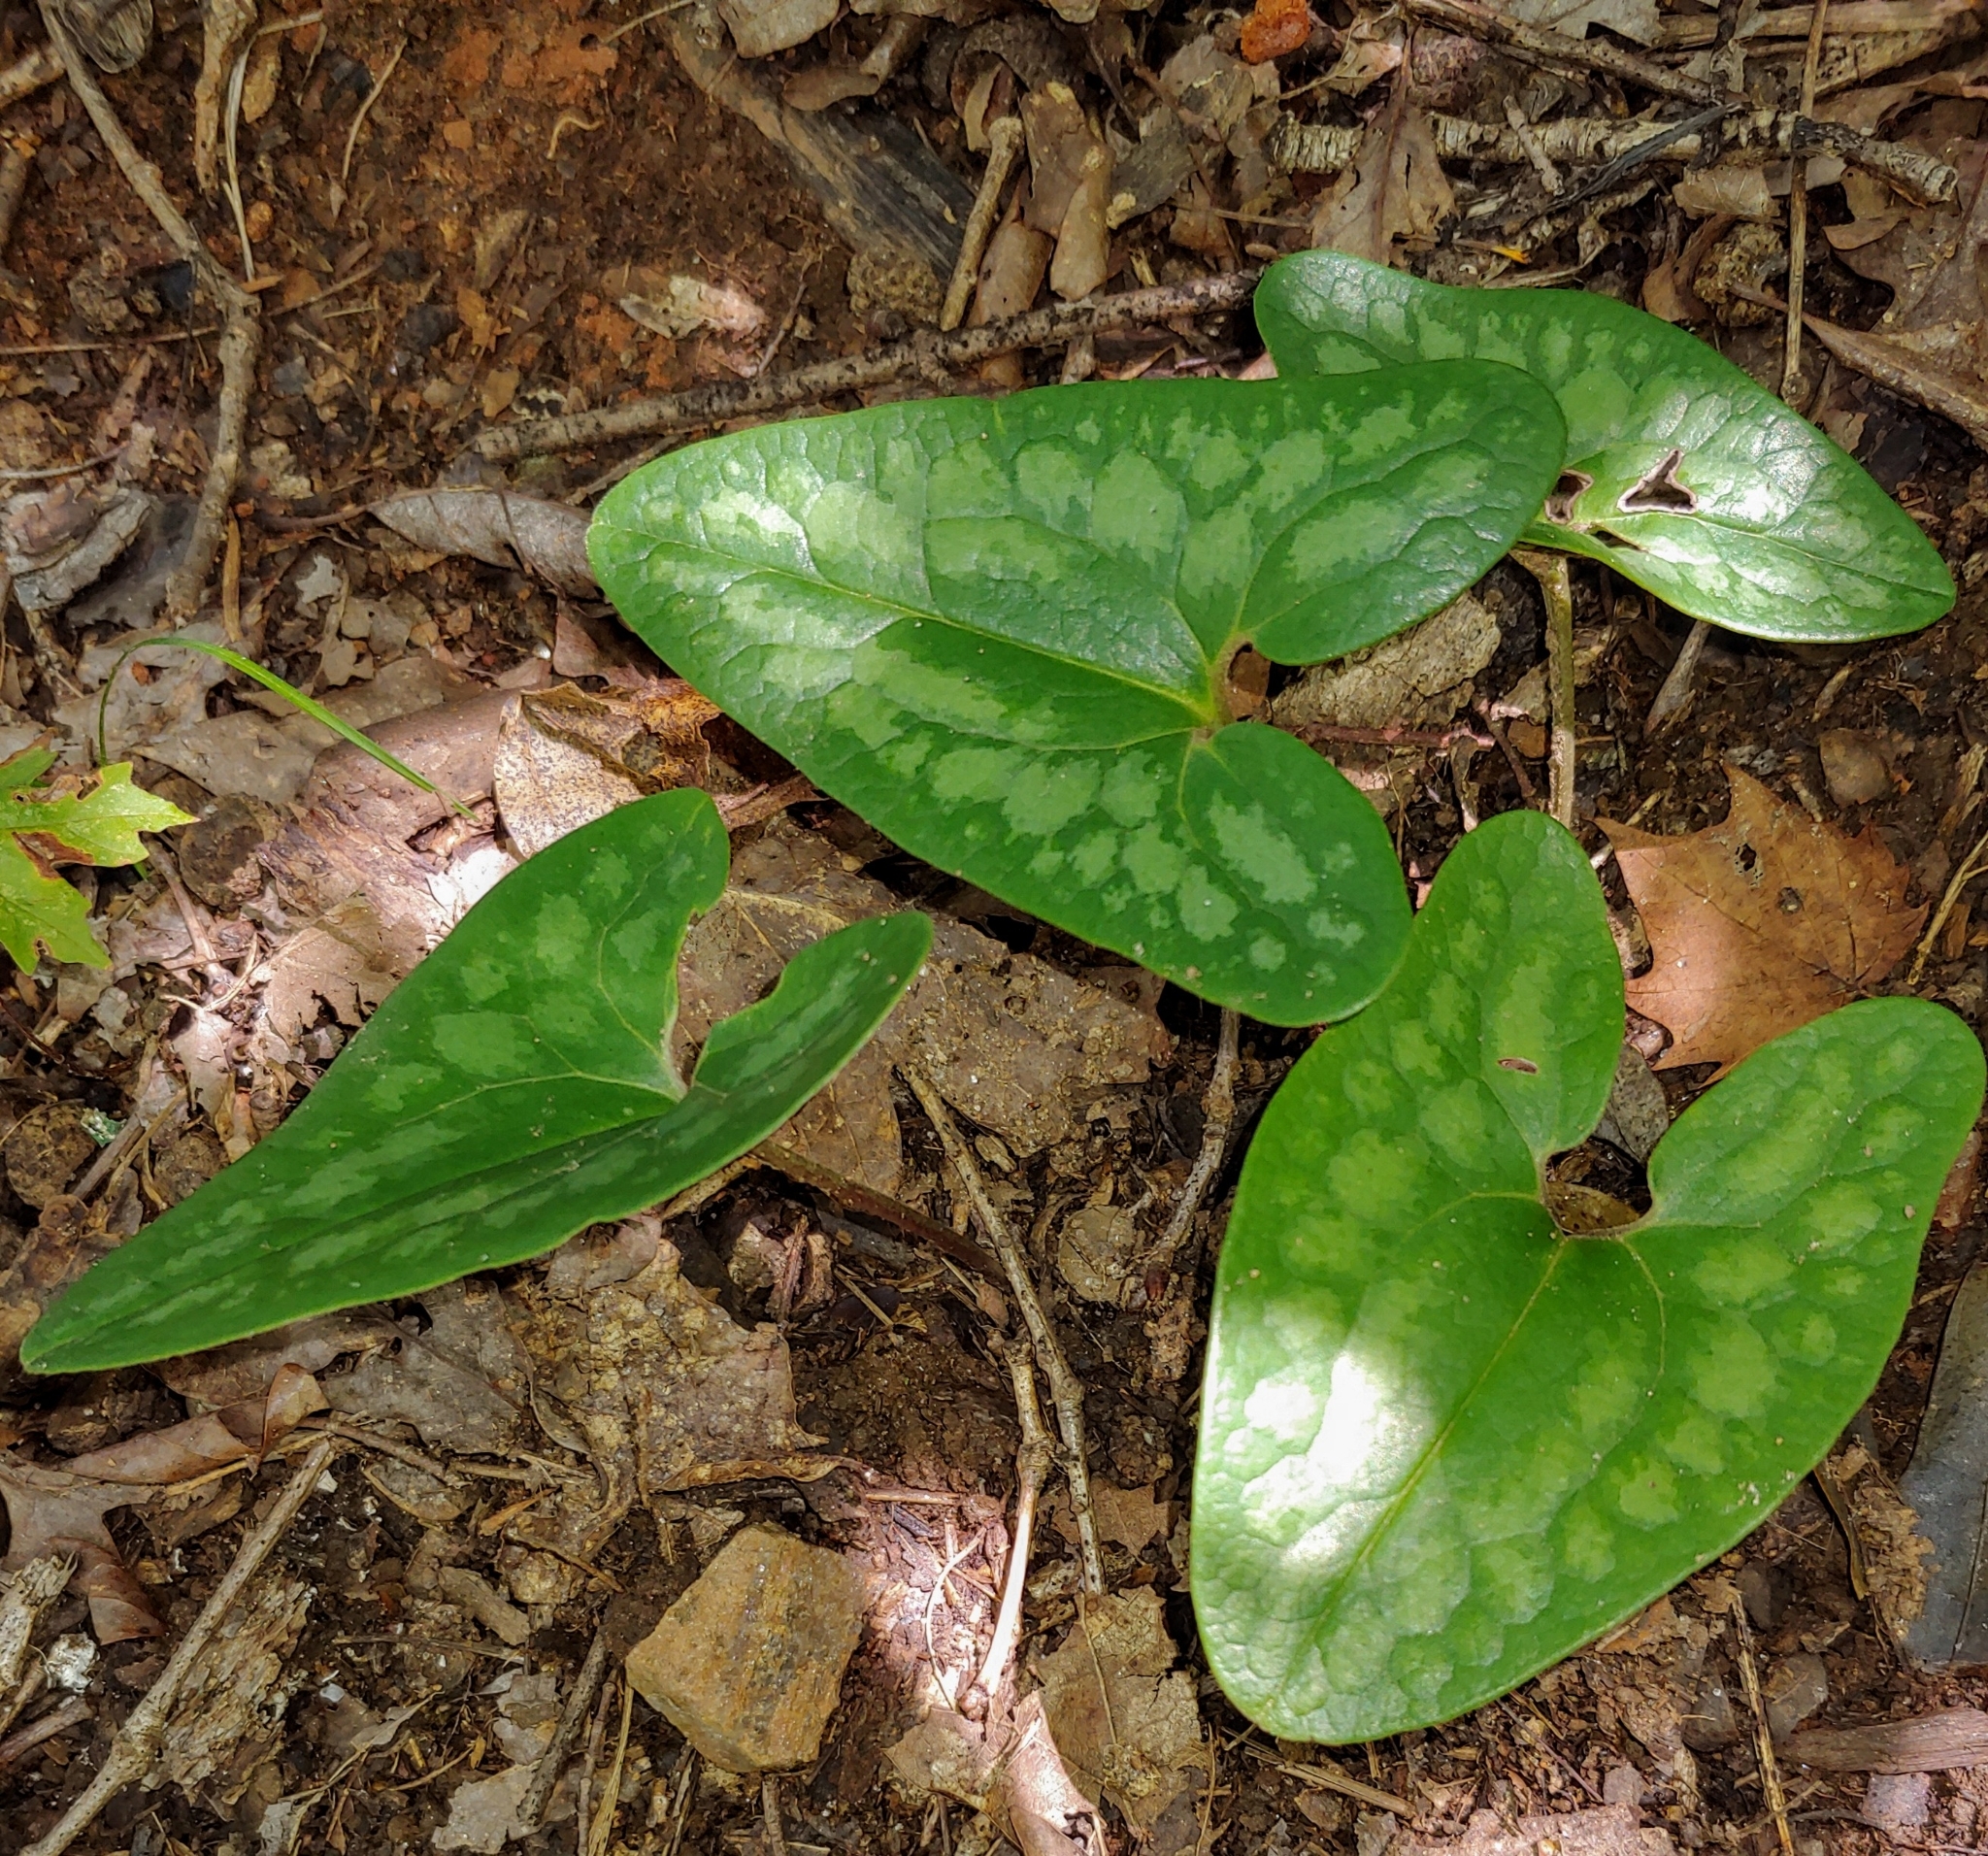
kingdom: Plantae
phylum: Tracheophyta
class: Magnoliopsida
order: Piperales
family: Aristolochiaceae
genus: Hexastylis
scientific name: Hexastylis arifolia
